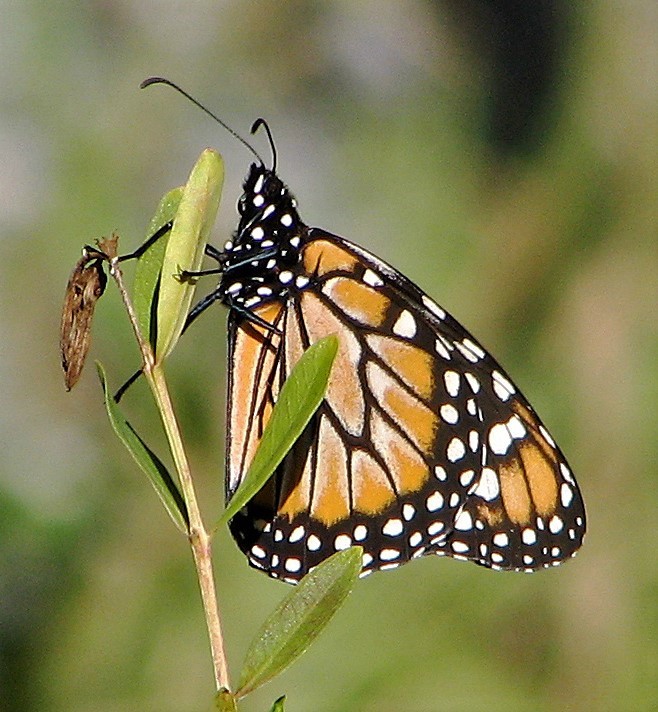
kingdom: Animalia
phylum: Arthropoda
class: Insecta
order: Lepidoptera
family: Nymphalidae
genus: Danaus
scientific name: Danaus erippus
